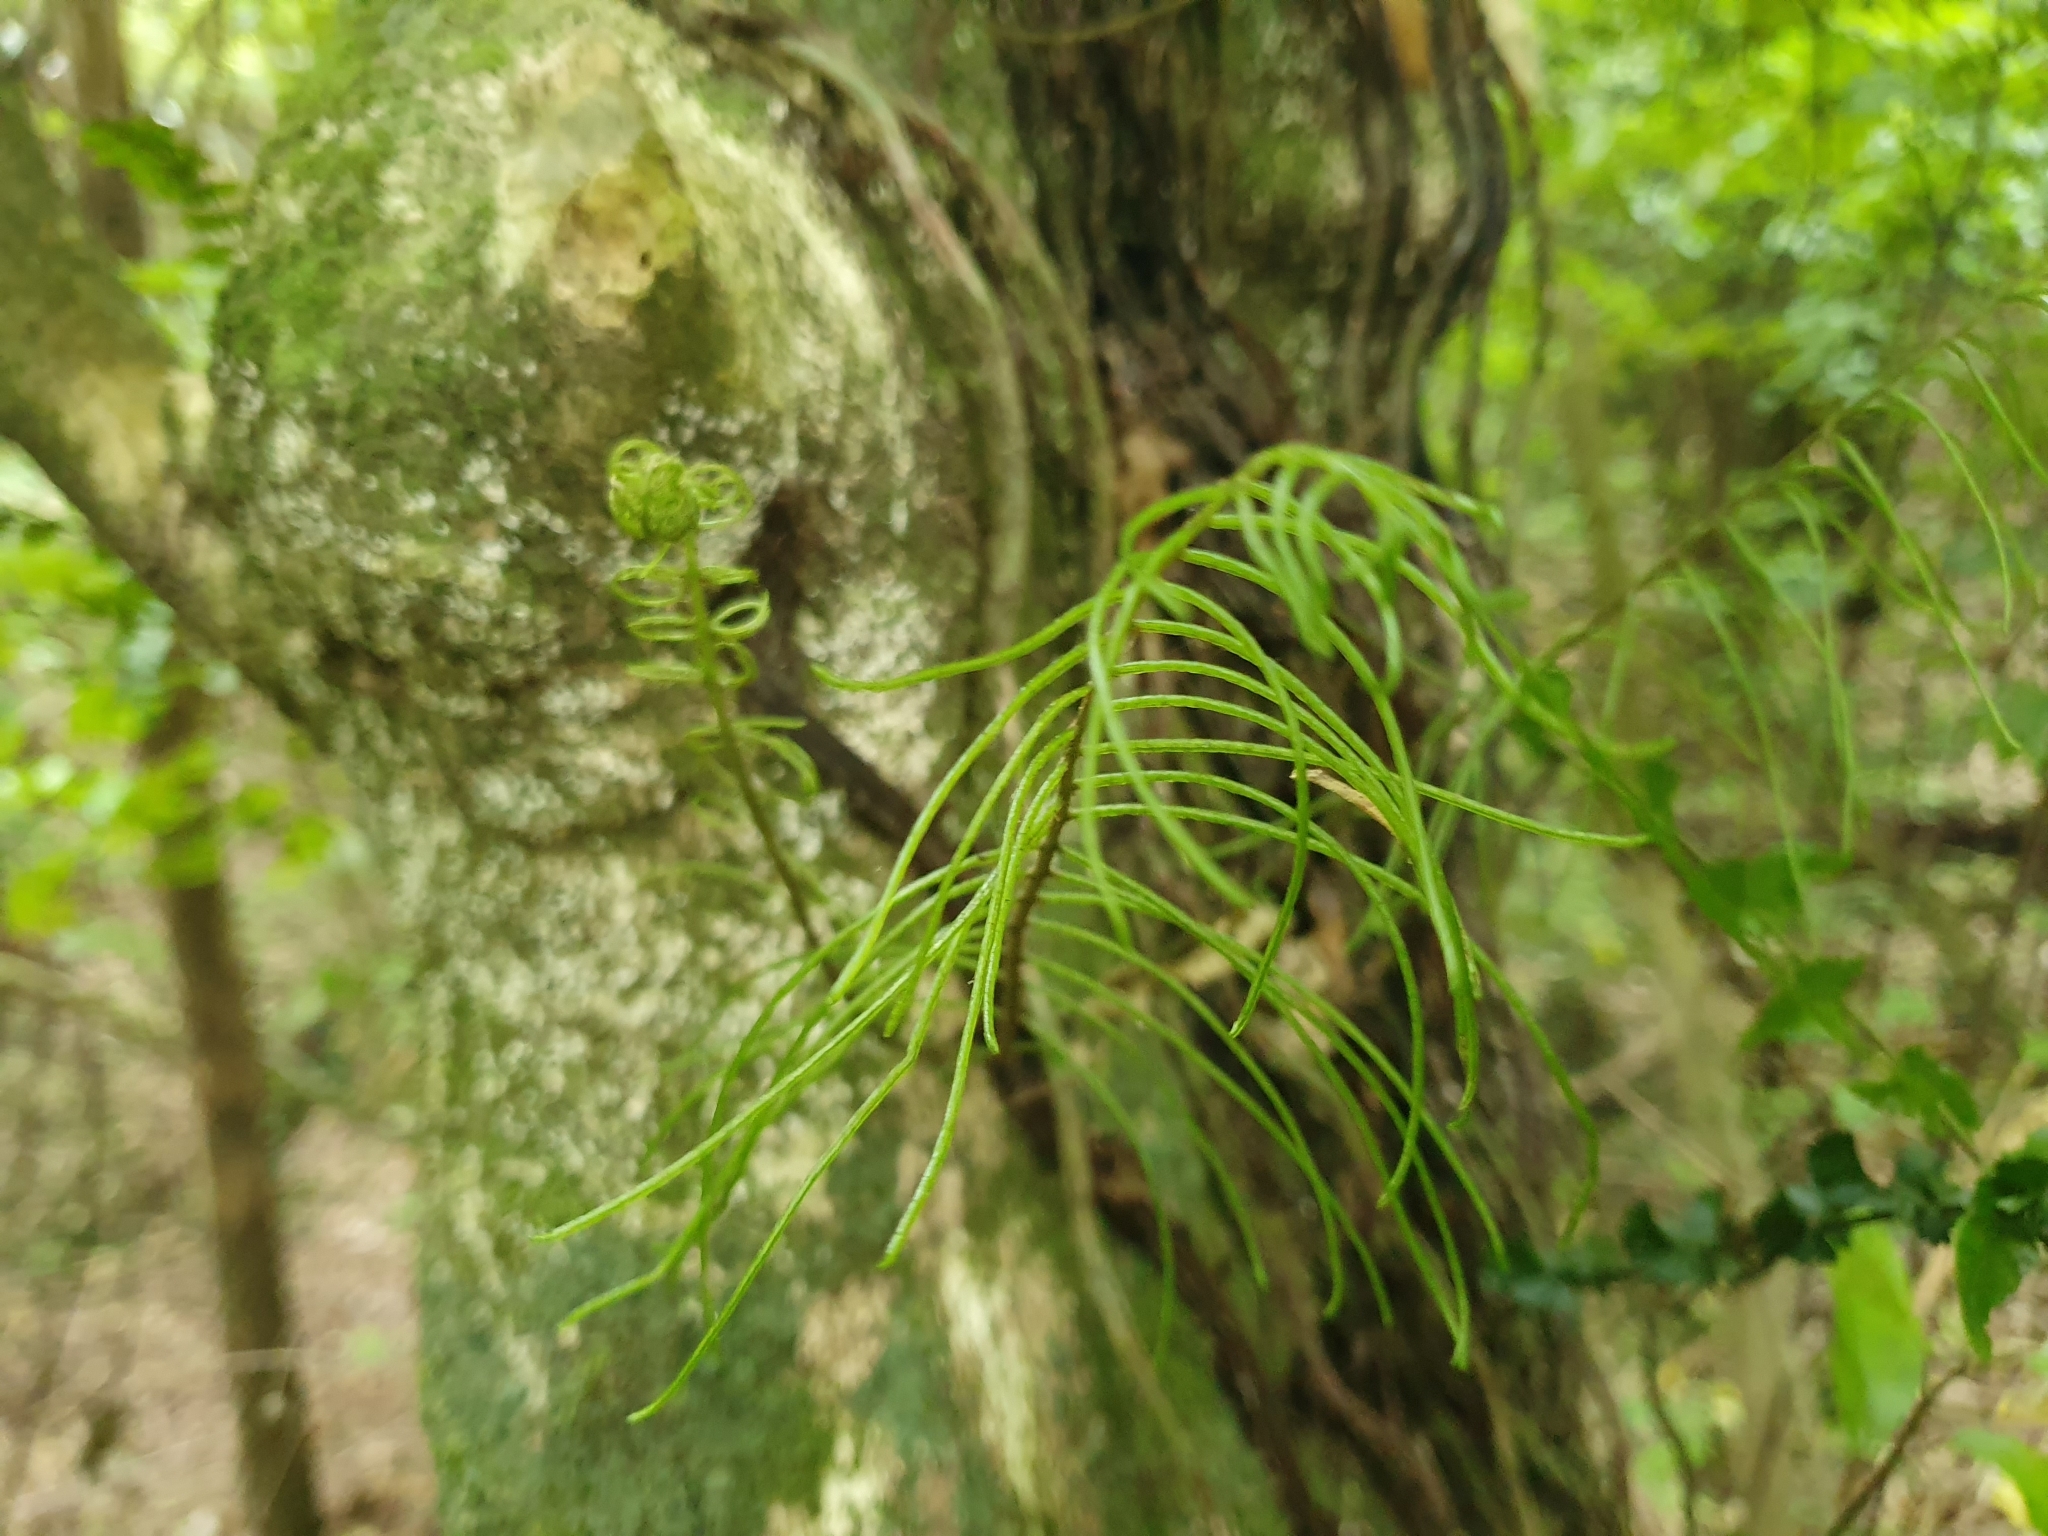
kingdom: Plantae
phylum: Tracheophyta
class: Polypodiopsida
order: Polypodiales
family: Blechnaceae
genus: Icarus
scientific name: Icarus filiformis
